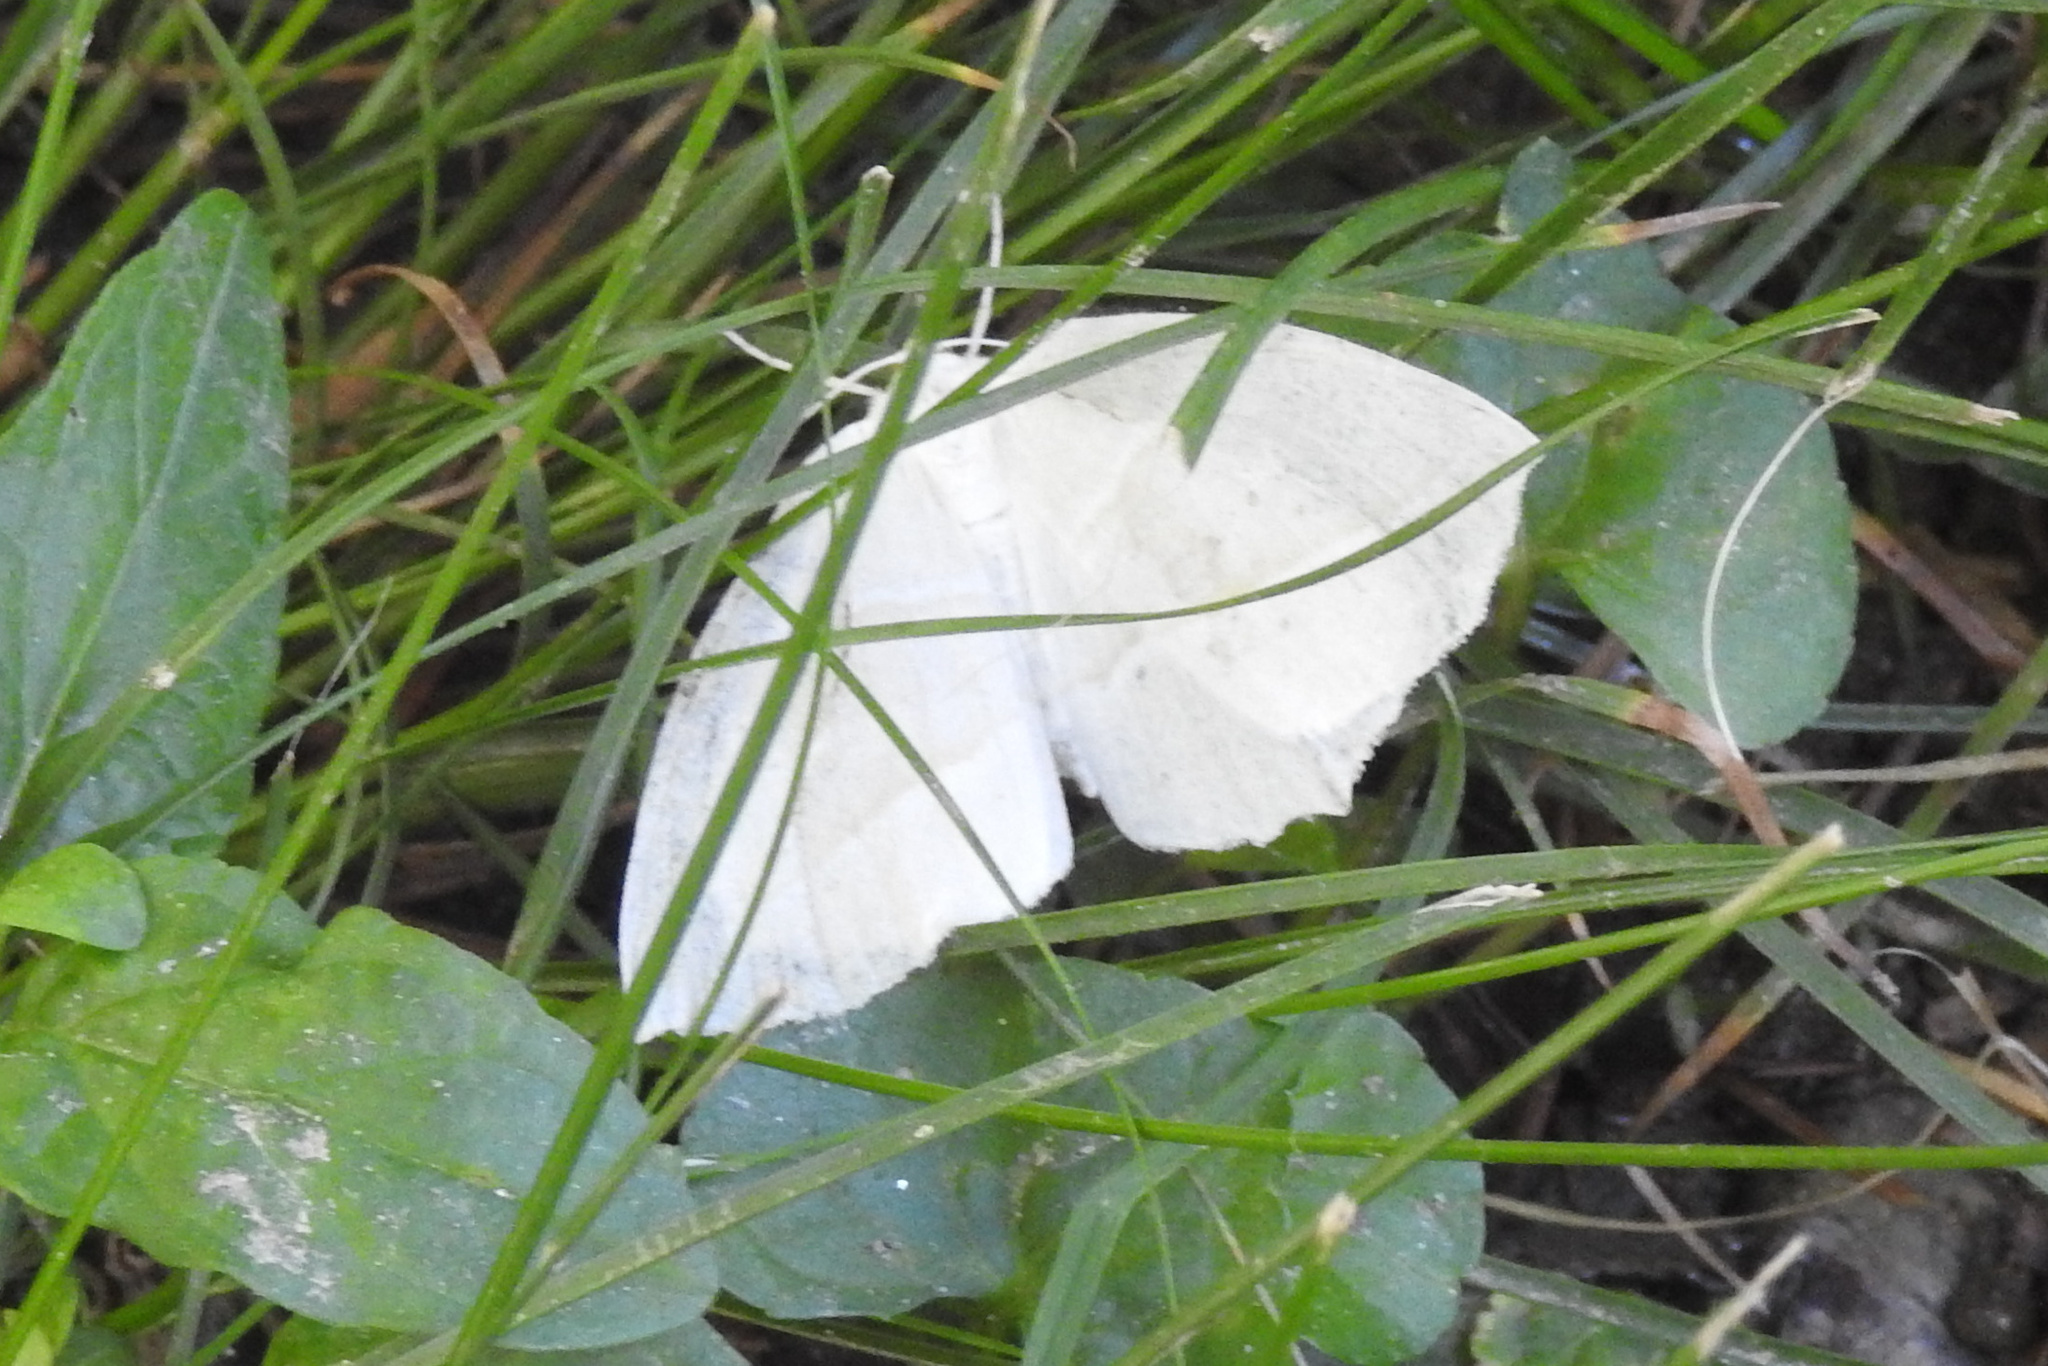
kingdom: Animalia
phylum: Arthropoda
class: Insecta
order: Lepidoptera
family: Geometridae
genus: Campaea
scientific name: Campaea perlata
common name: Fringed looper
